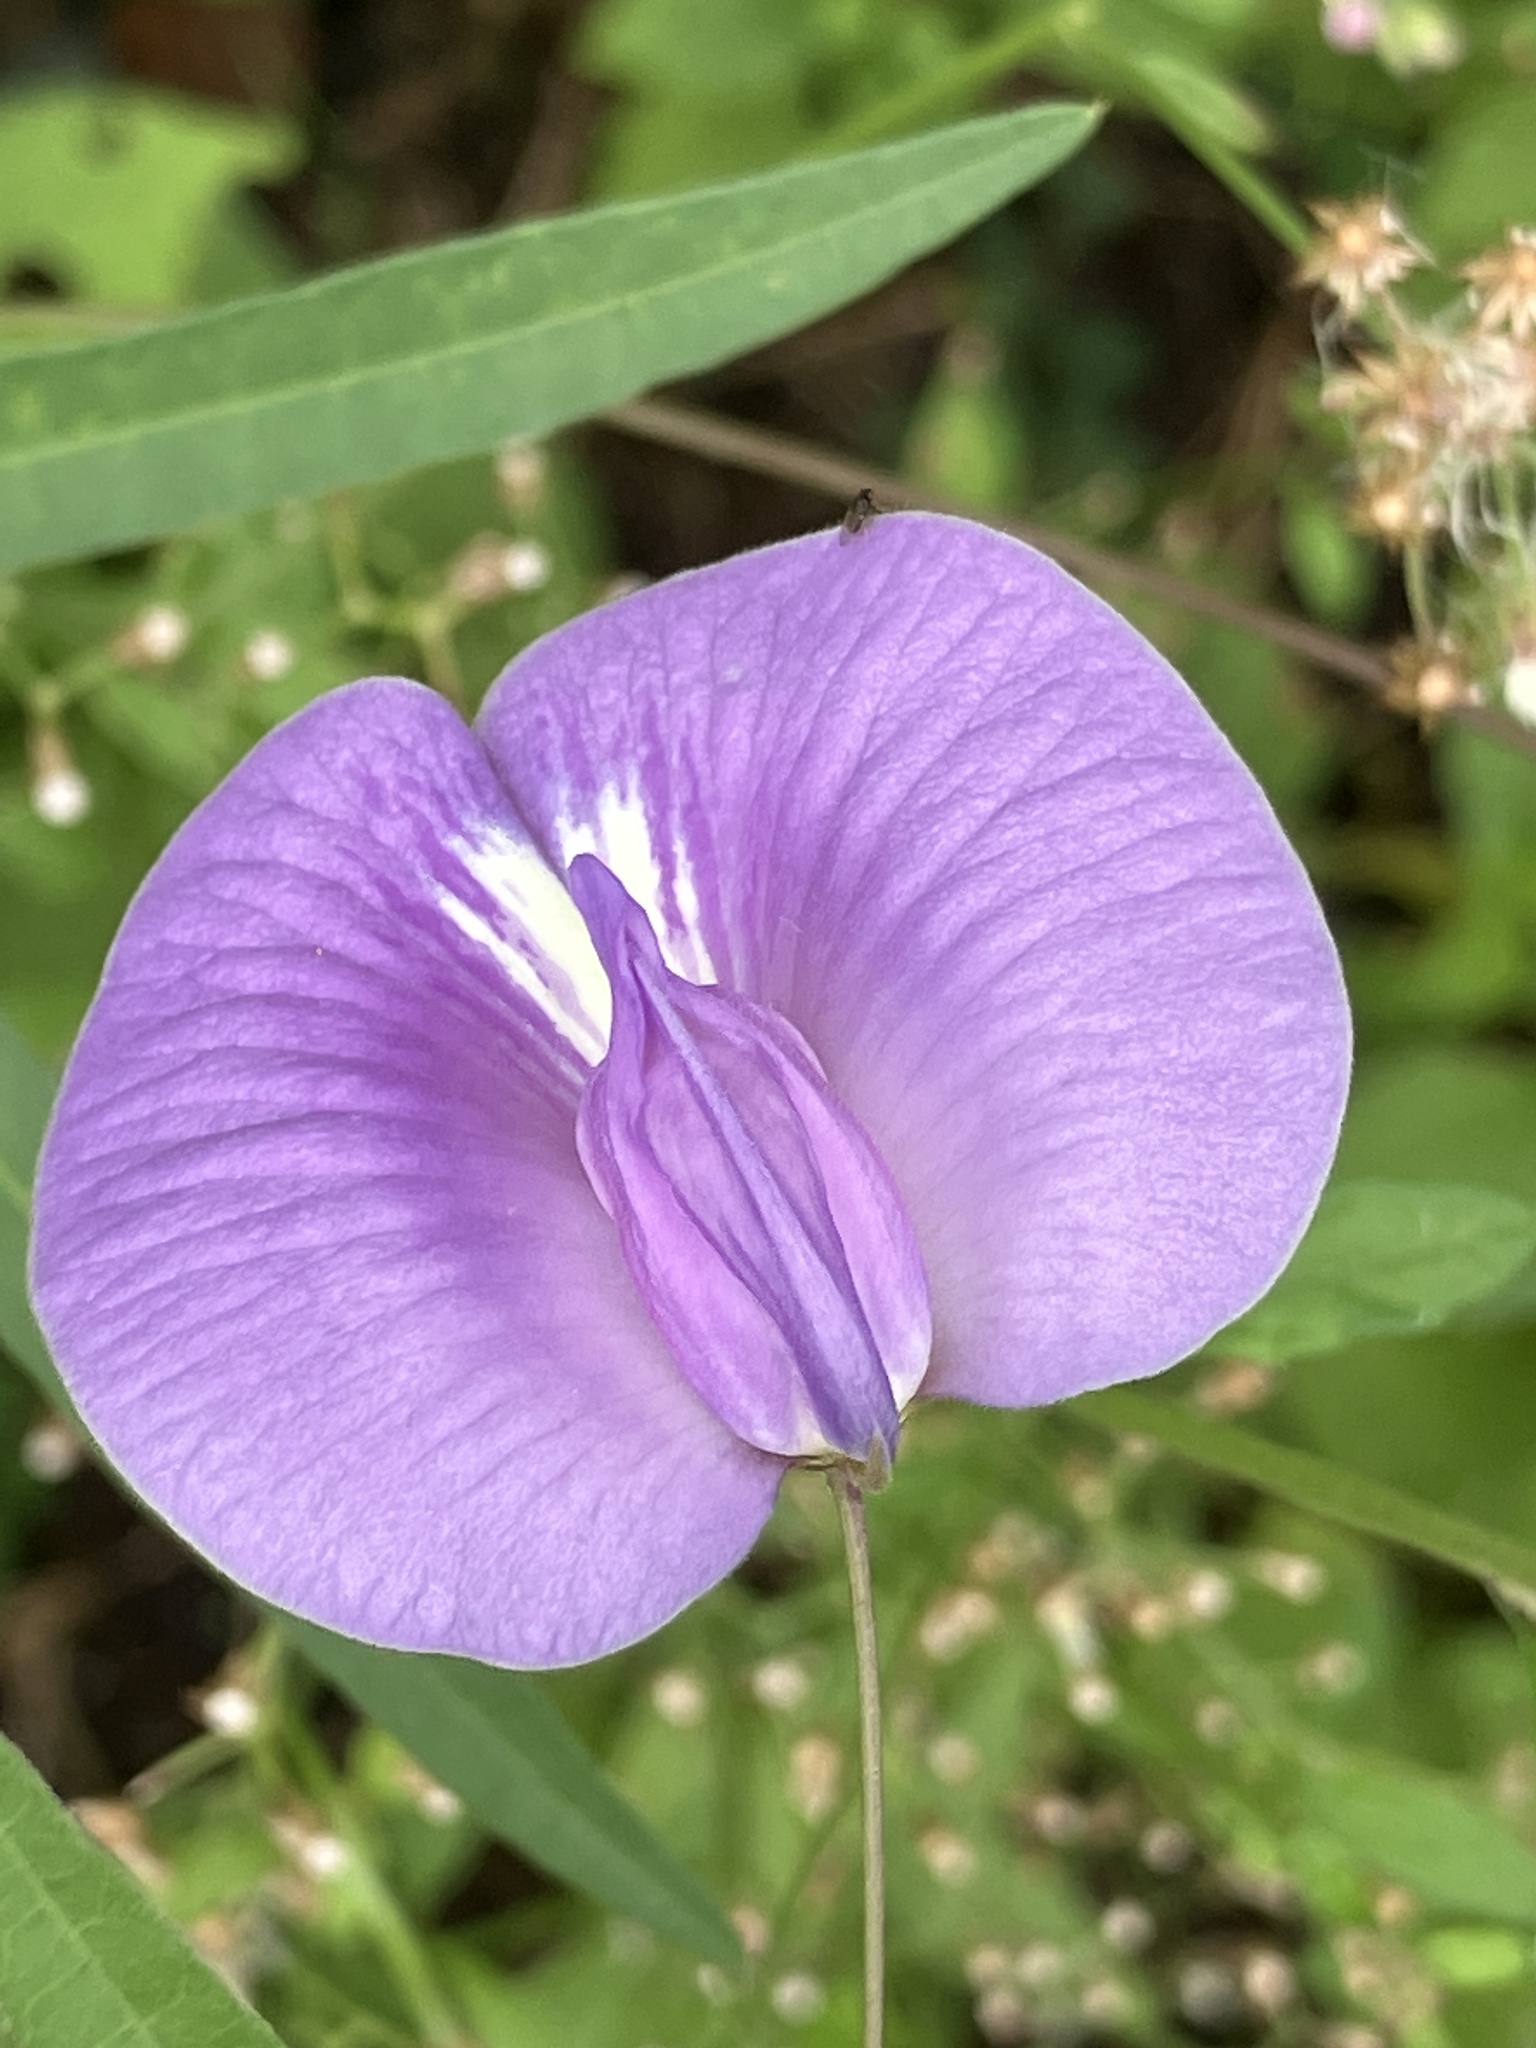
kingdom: Plantae
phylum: Tracheophyta
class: Magnoliopsida
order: Fabales
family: Fabaceae
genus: Centrosema
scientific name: Centrosema virginianum
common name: Butterfly-pea
